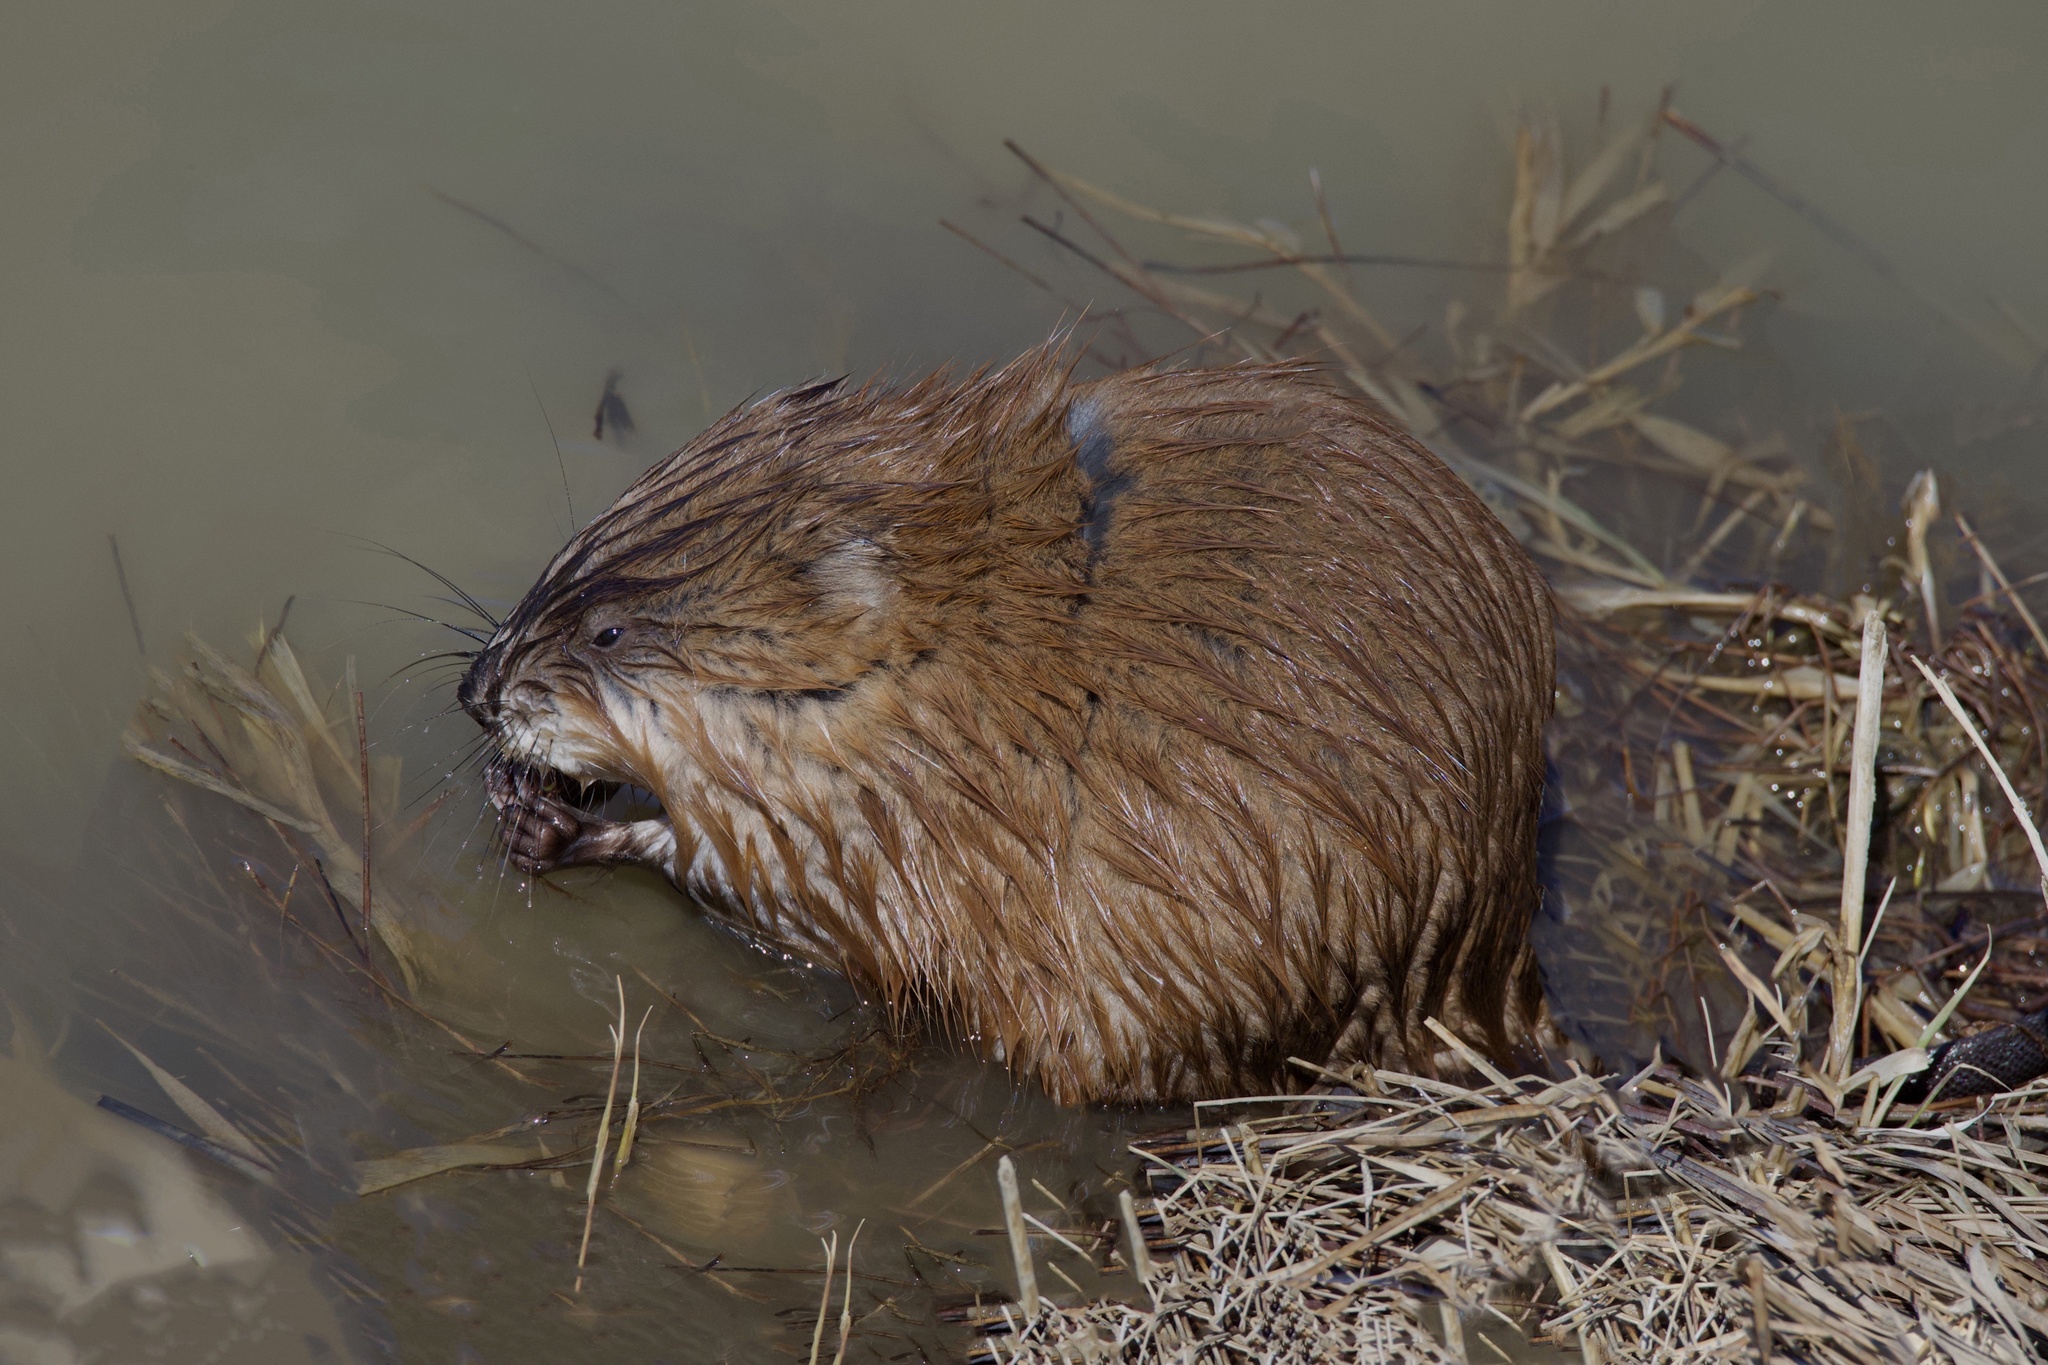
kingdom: Animalia
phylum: Chordata
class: Mammalia
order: Rodentia
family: Cricetidae
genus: Ondatra
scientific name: Ondatra zibethicus
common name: Muskrat
